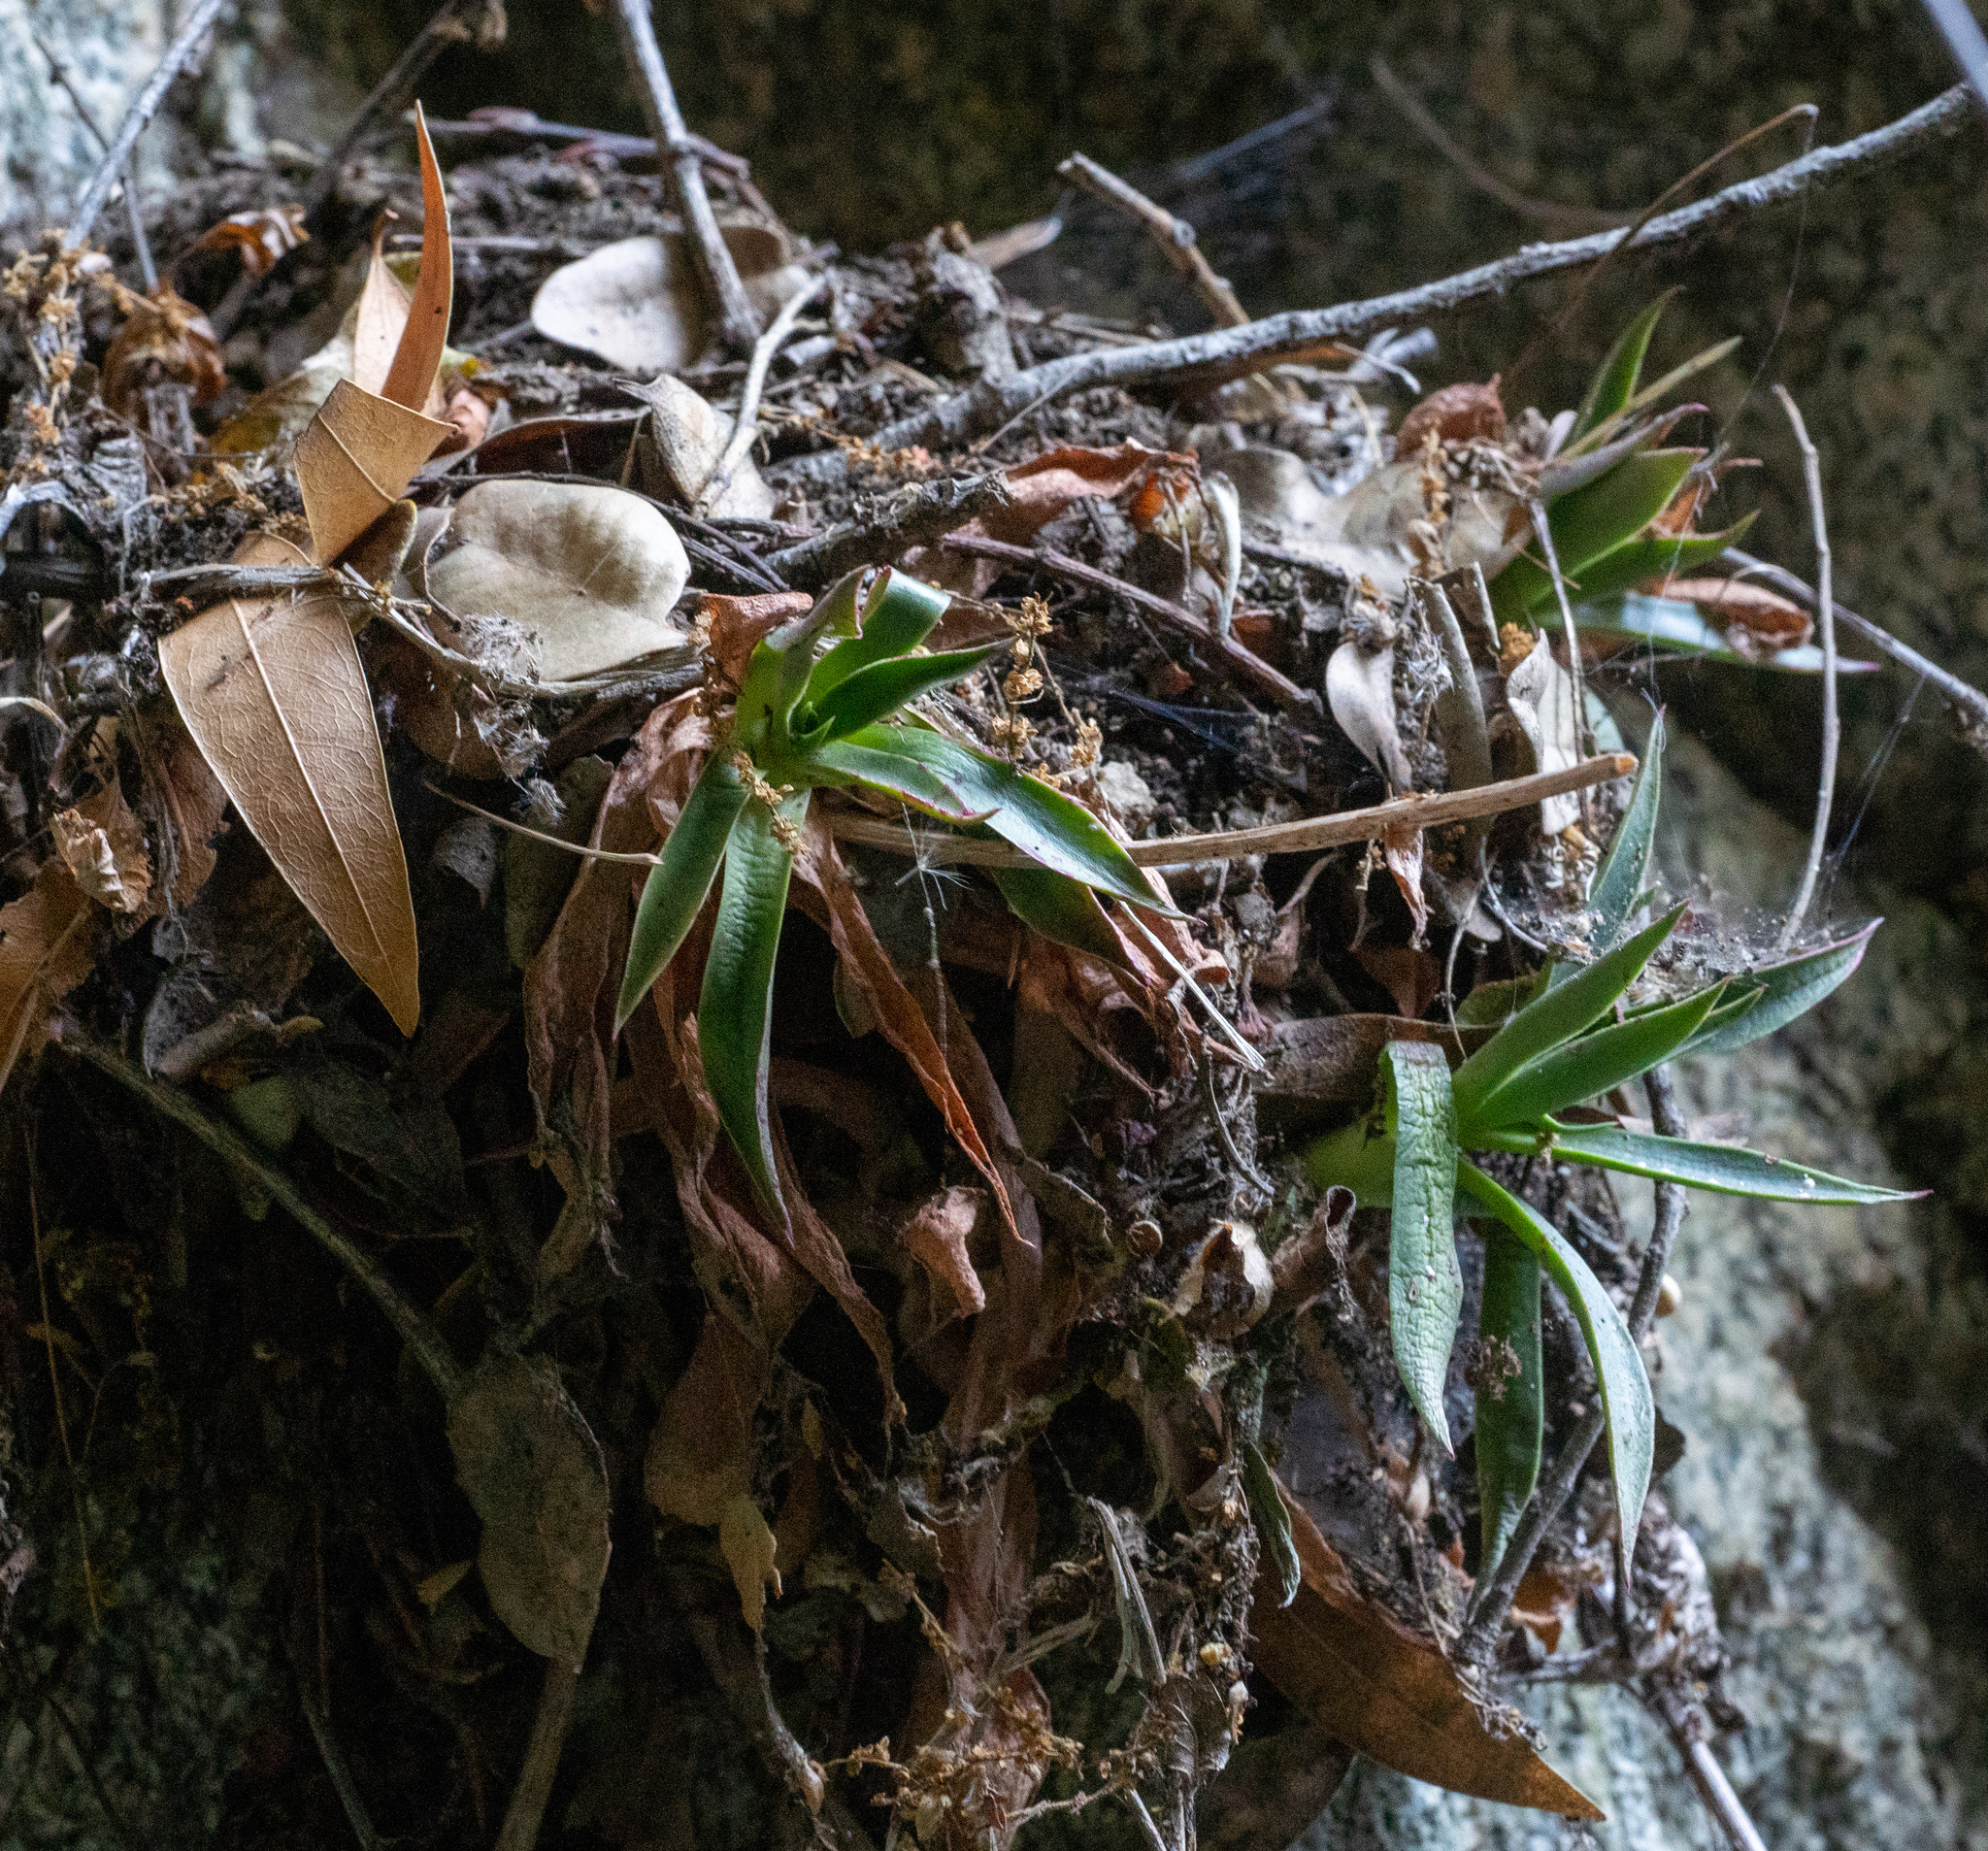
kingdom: Plantae
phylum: Tracheophyta
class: Magnoliopsida
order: Saxifragales
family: Crassulaceae
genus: Dudleya
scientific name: Dudleya lanceolata
